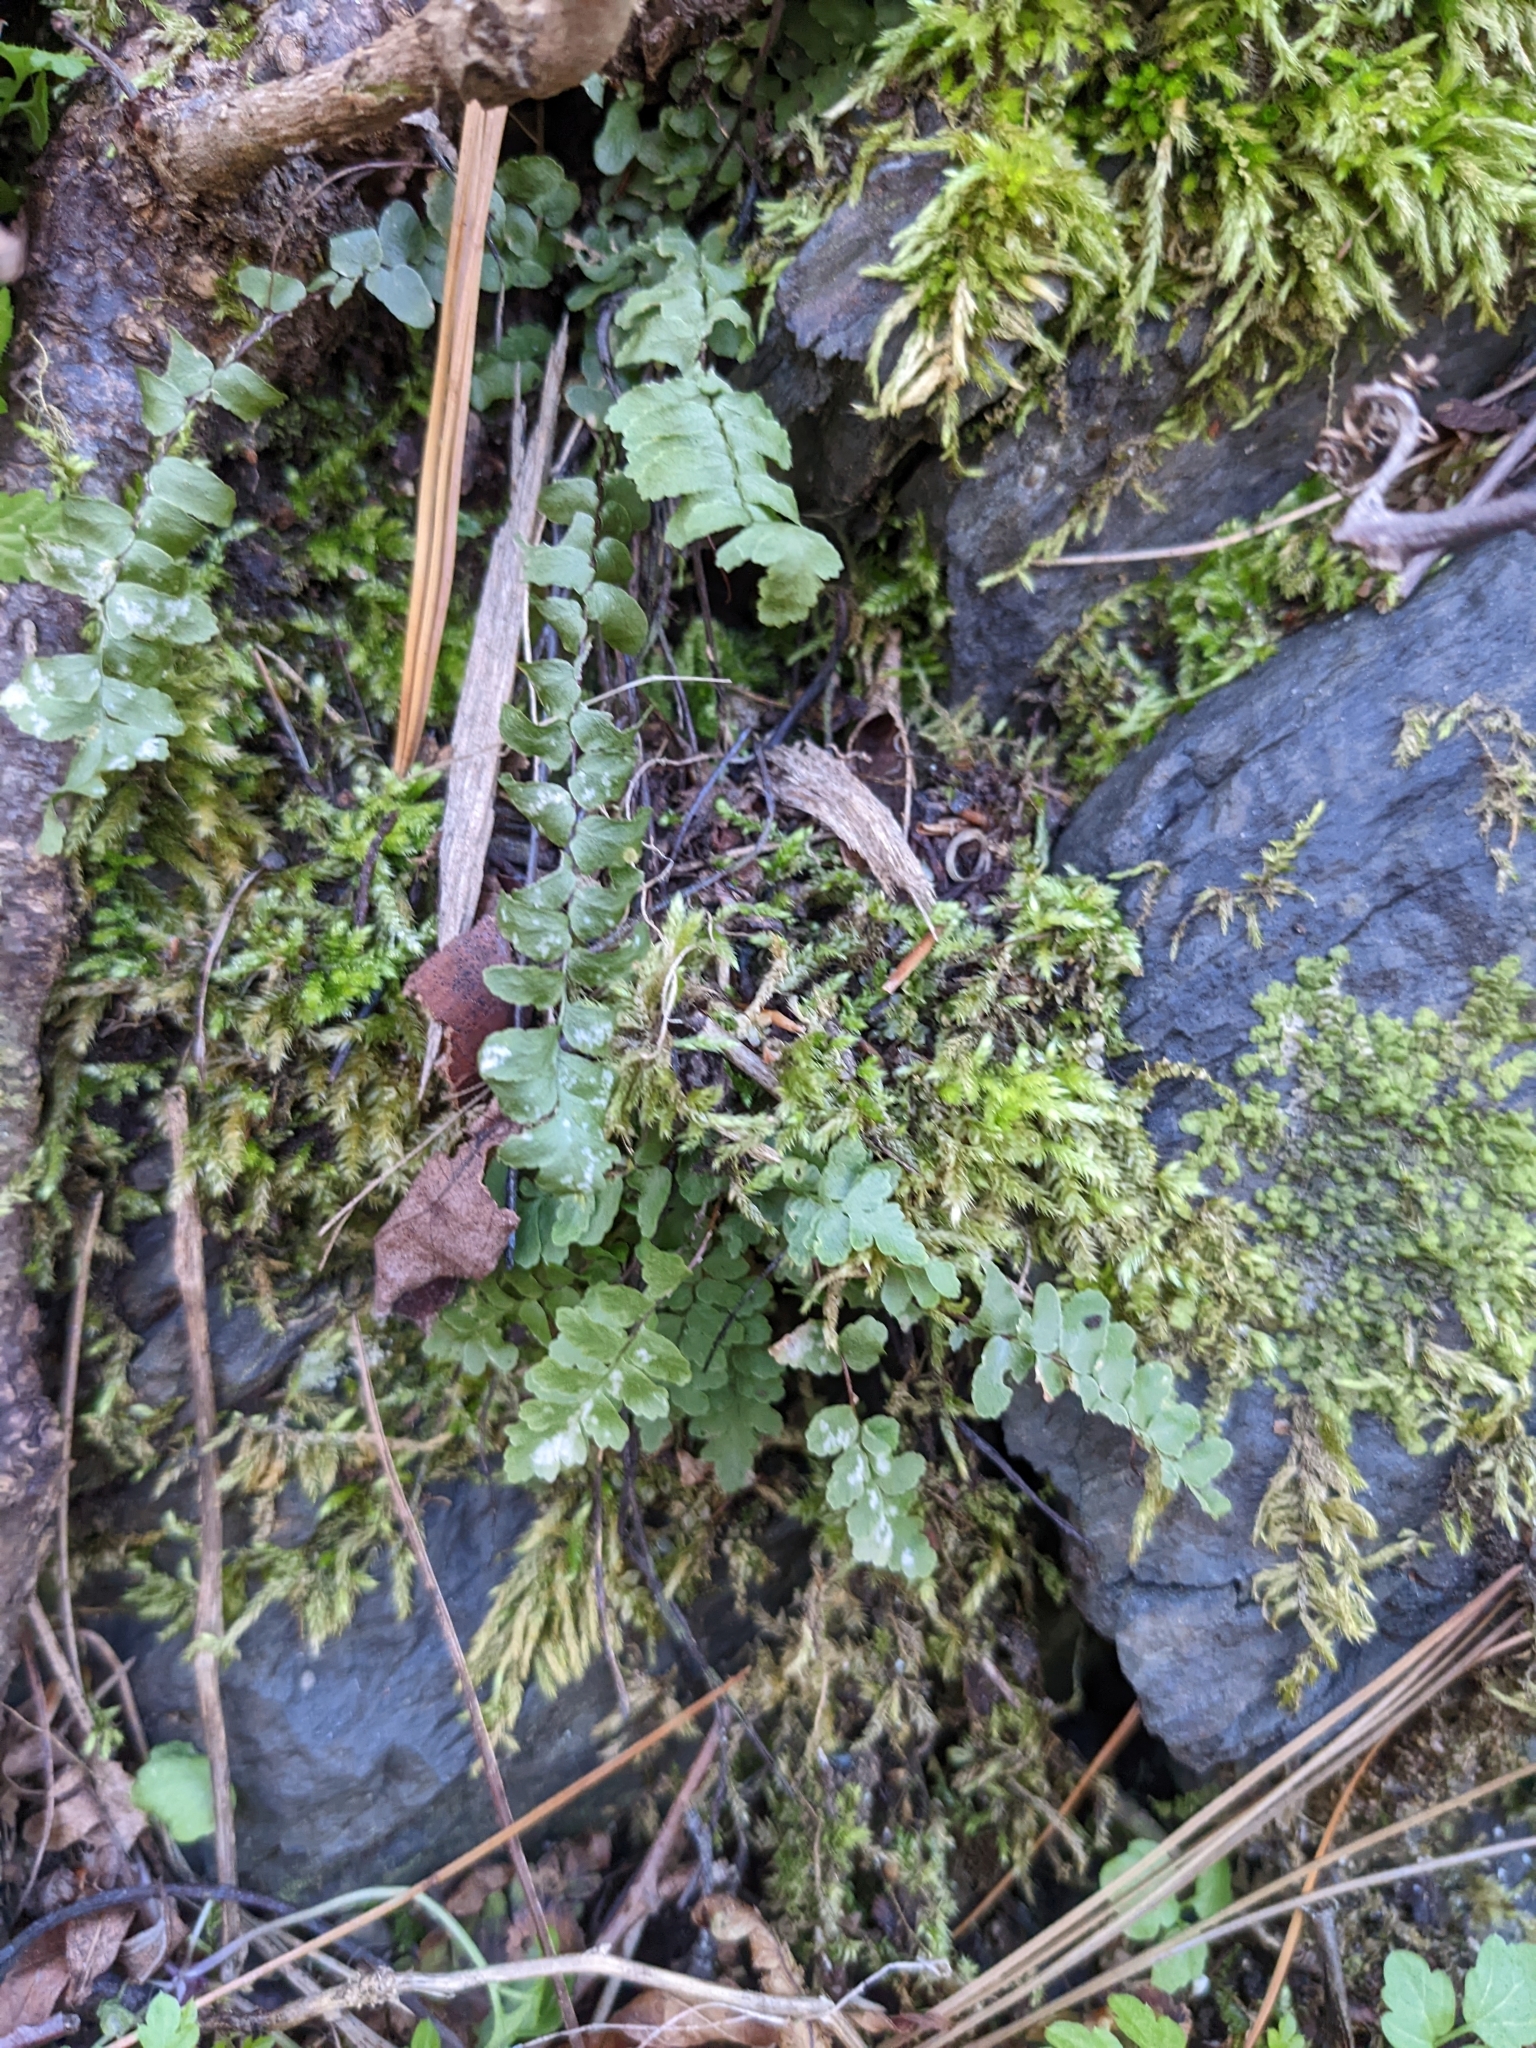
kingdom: Plantae
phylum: Tracheophyta
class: Polypodiopsida
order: Polypodiales
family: Aspleniaceae
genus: Asplenium
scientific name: Asplenium platyneuron
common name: Ebony spleenwort
